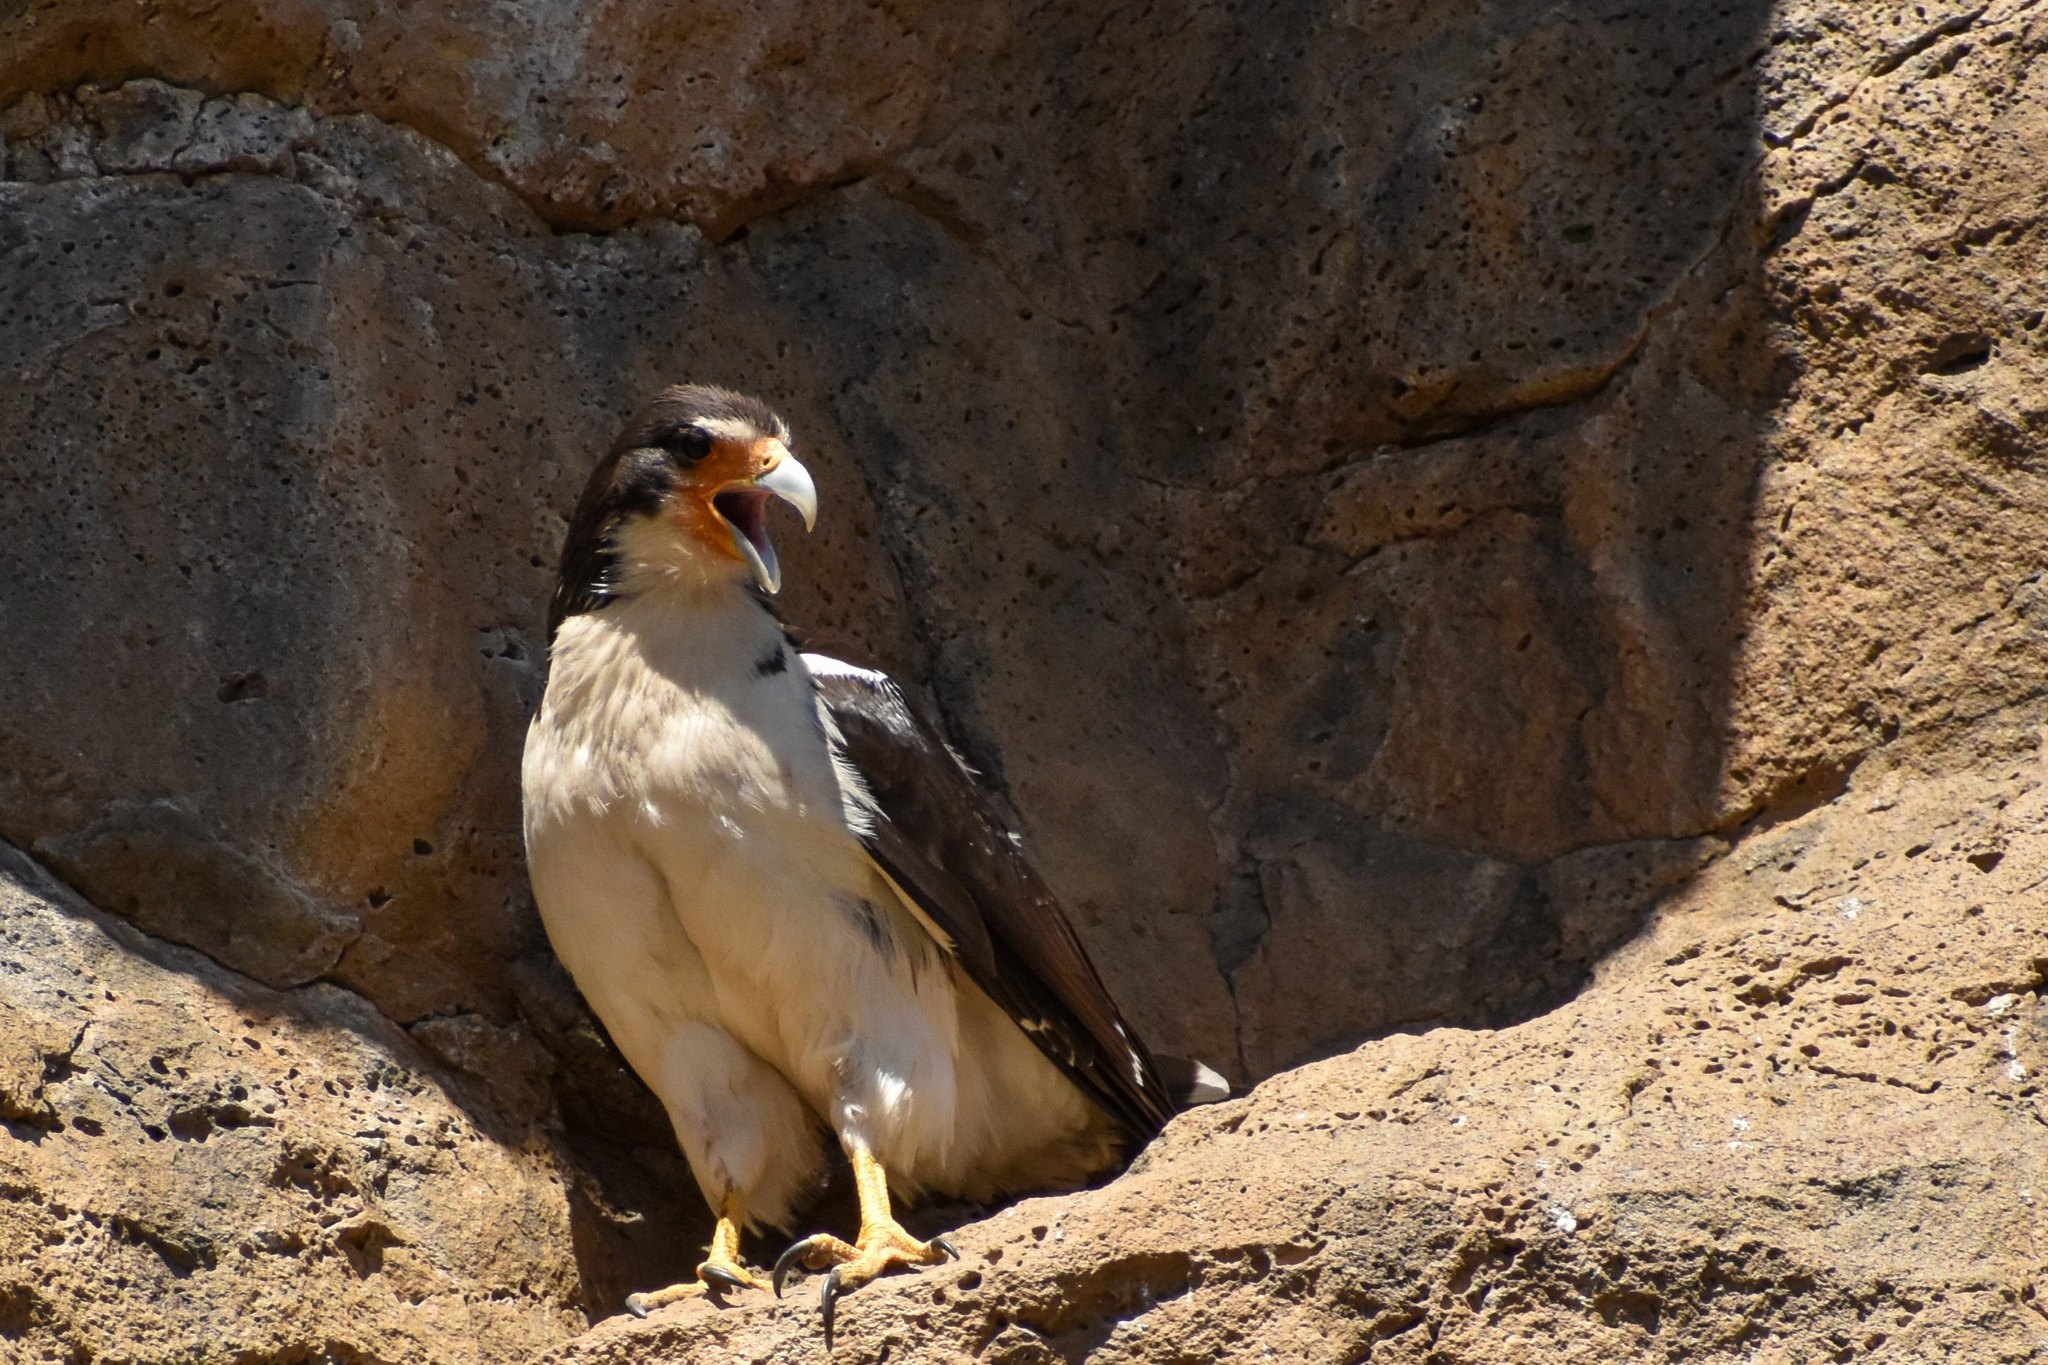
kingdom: Animalia
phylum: Chordata
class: Aves
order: Falconiformes
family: Falconidae
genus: Daptrius
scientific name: Daptrius
